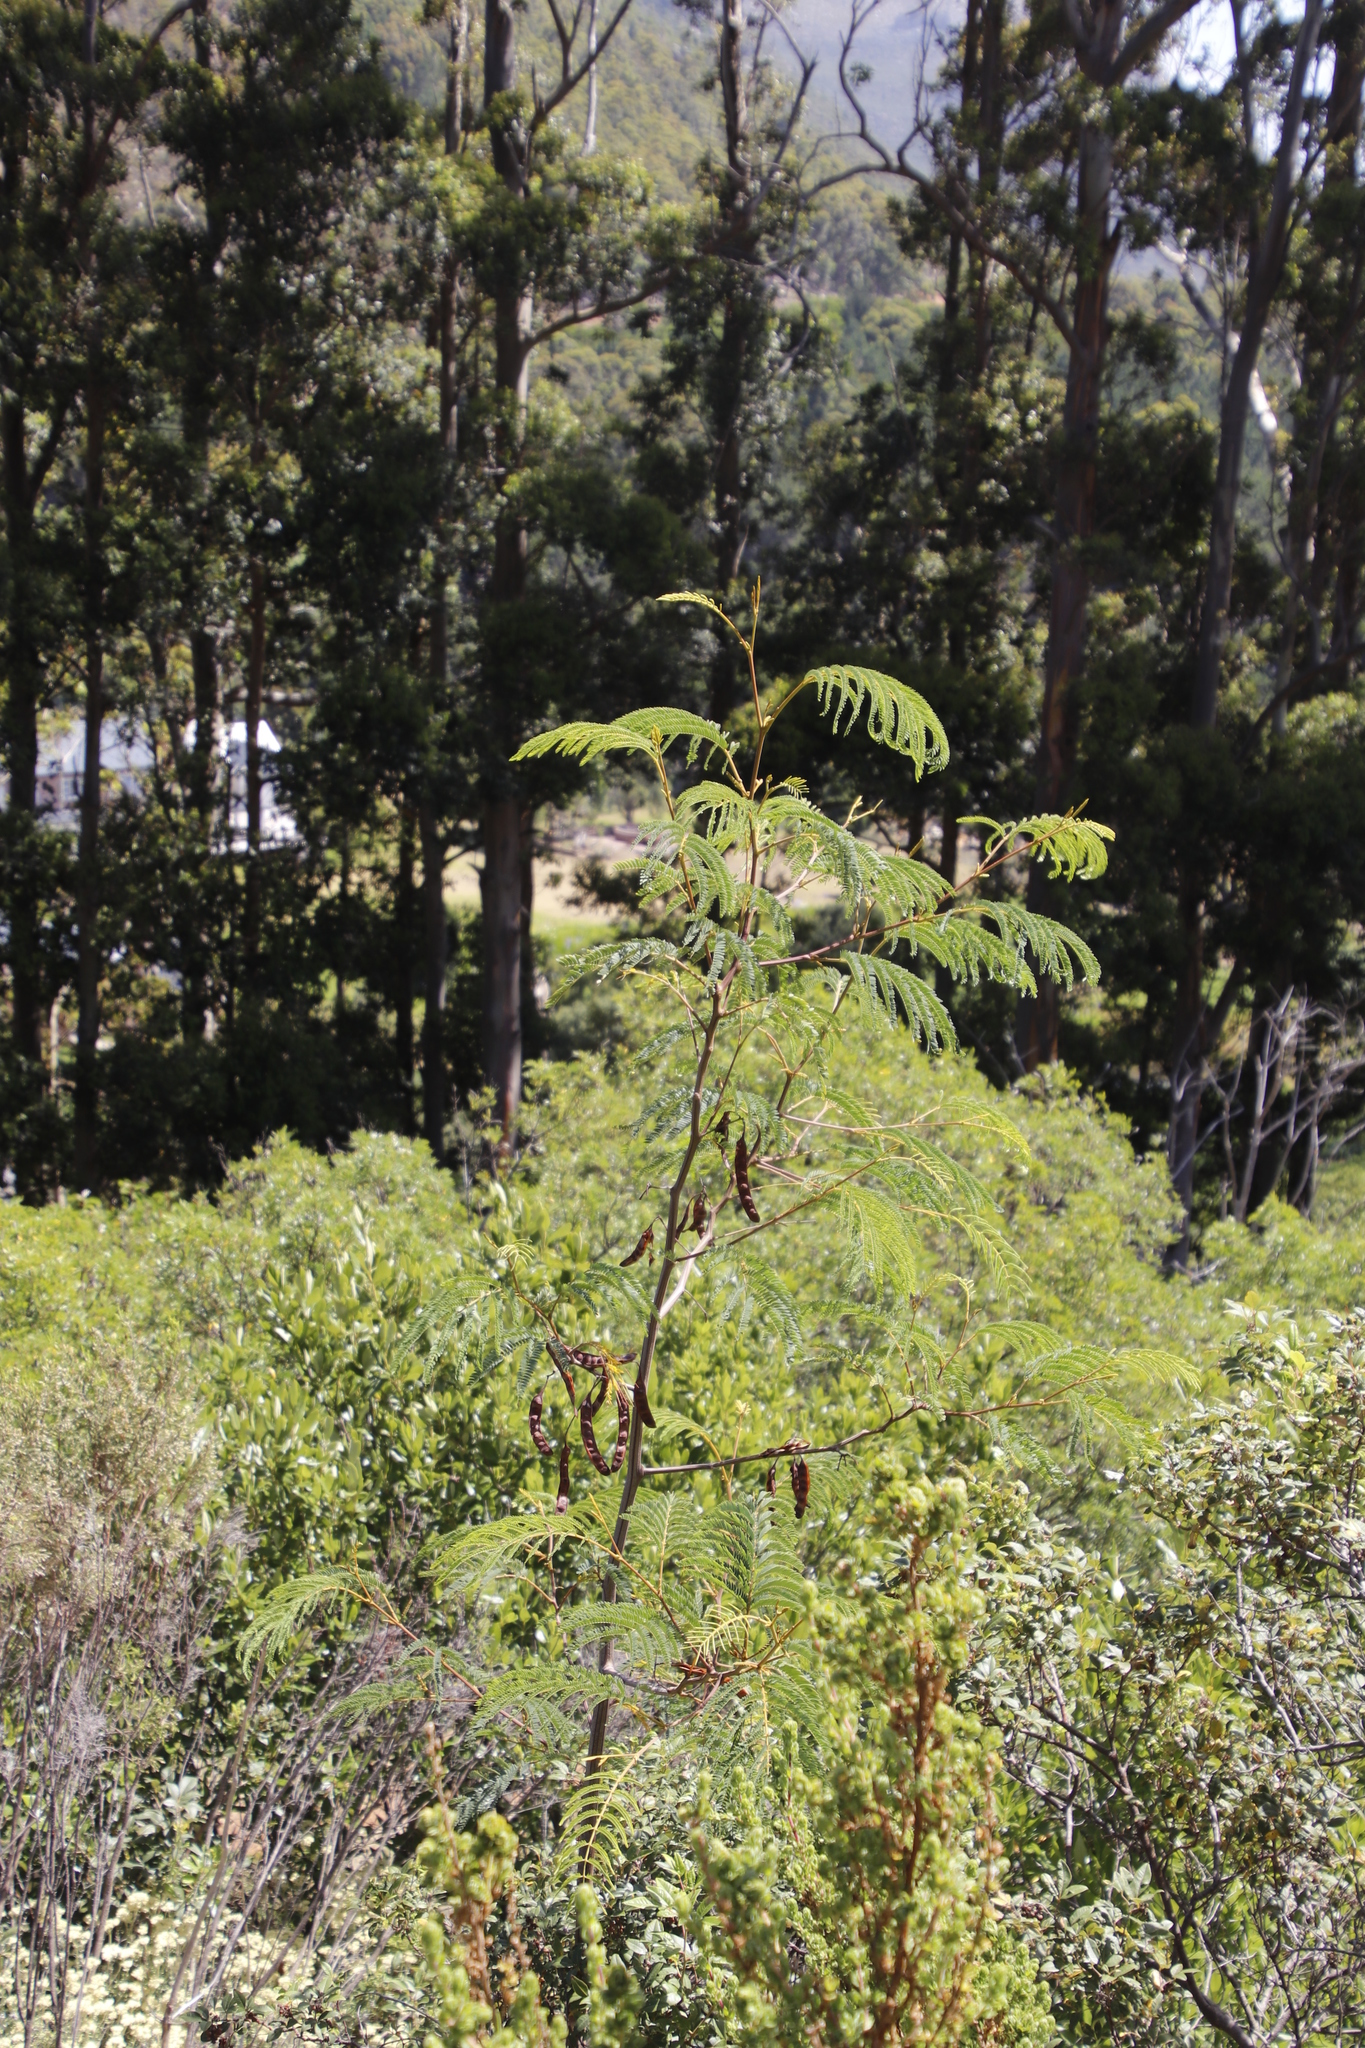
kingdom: Plantae
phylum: Tracheophyta
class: Magnoliopsida
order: Fabales
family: Fabaceae
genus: Paraserianthes
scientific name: Paraserianthes lophantha
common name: Plume albizia
